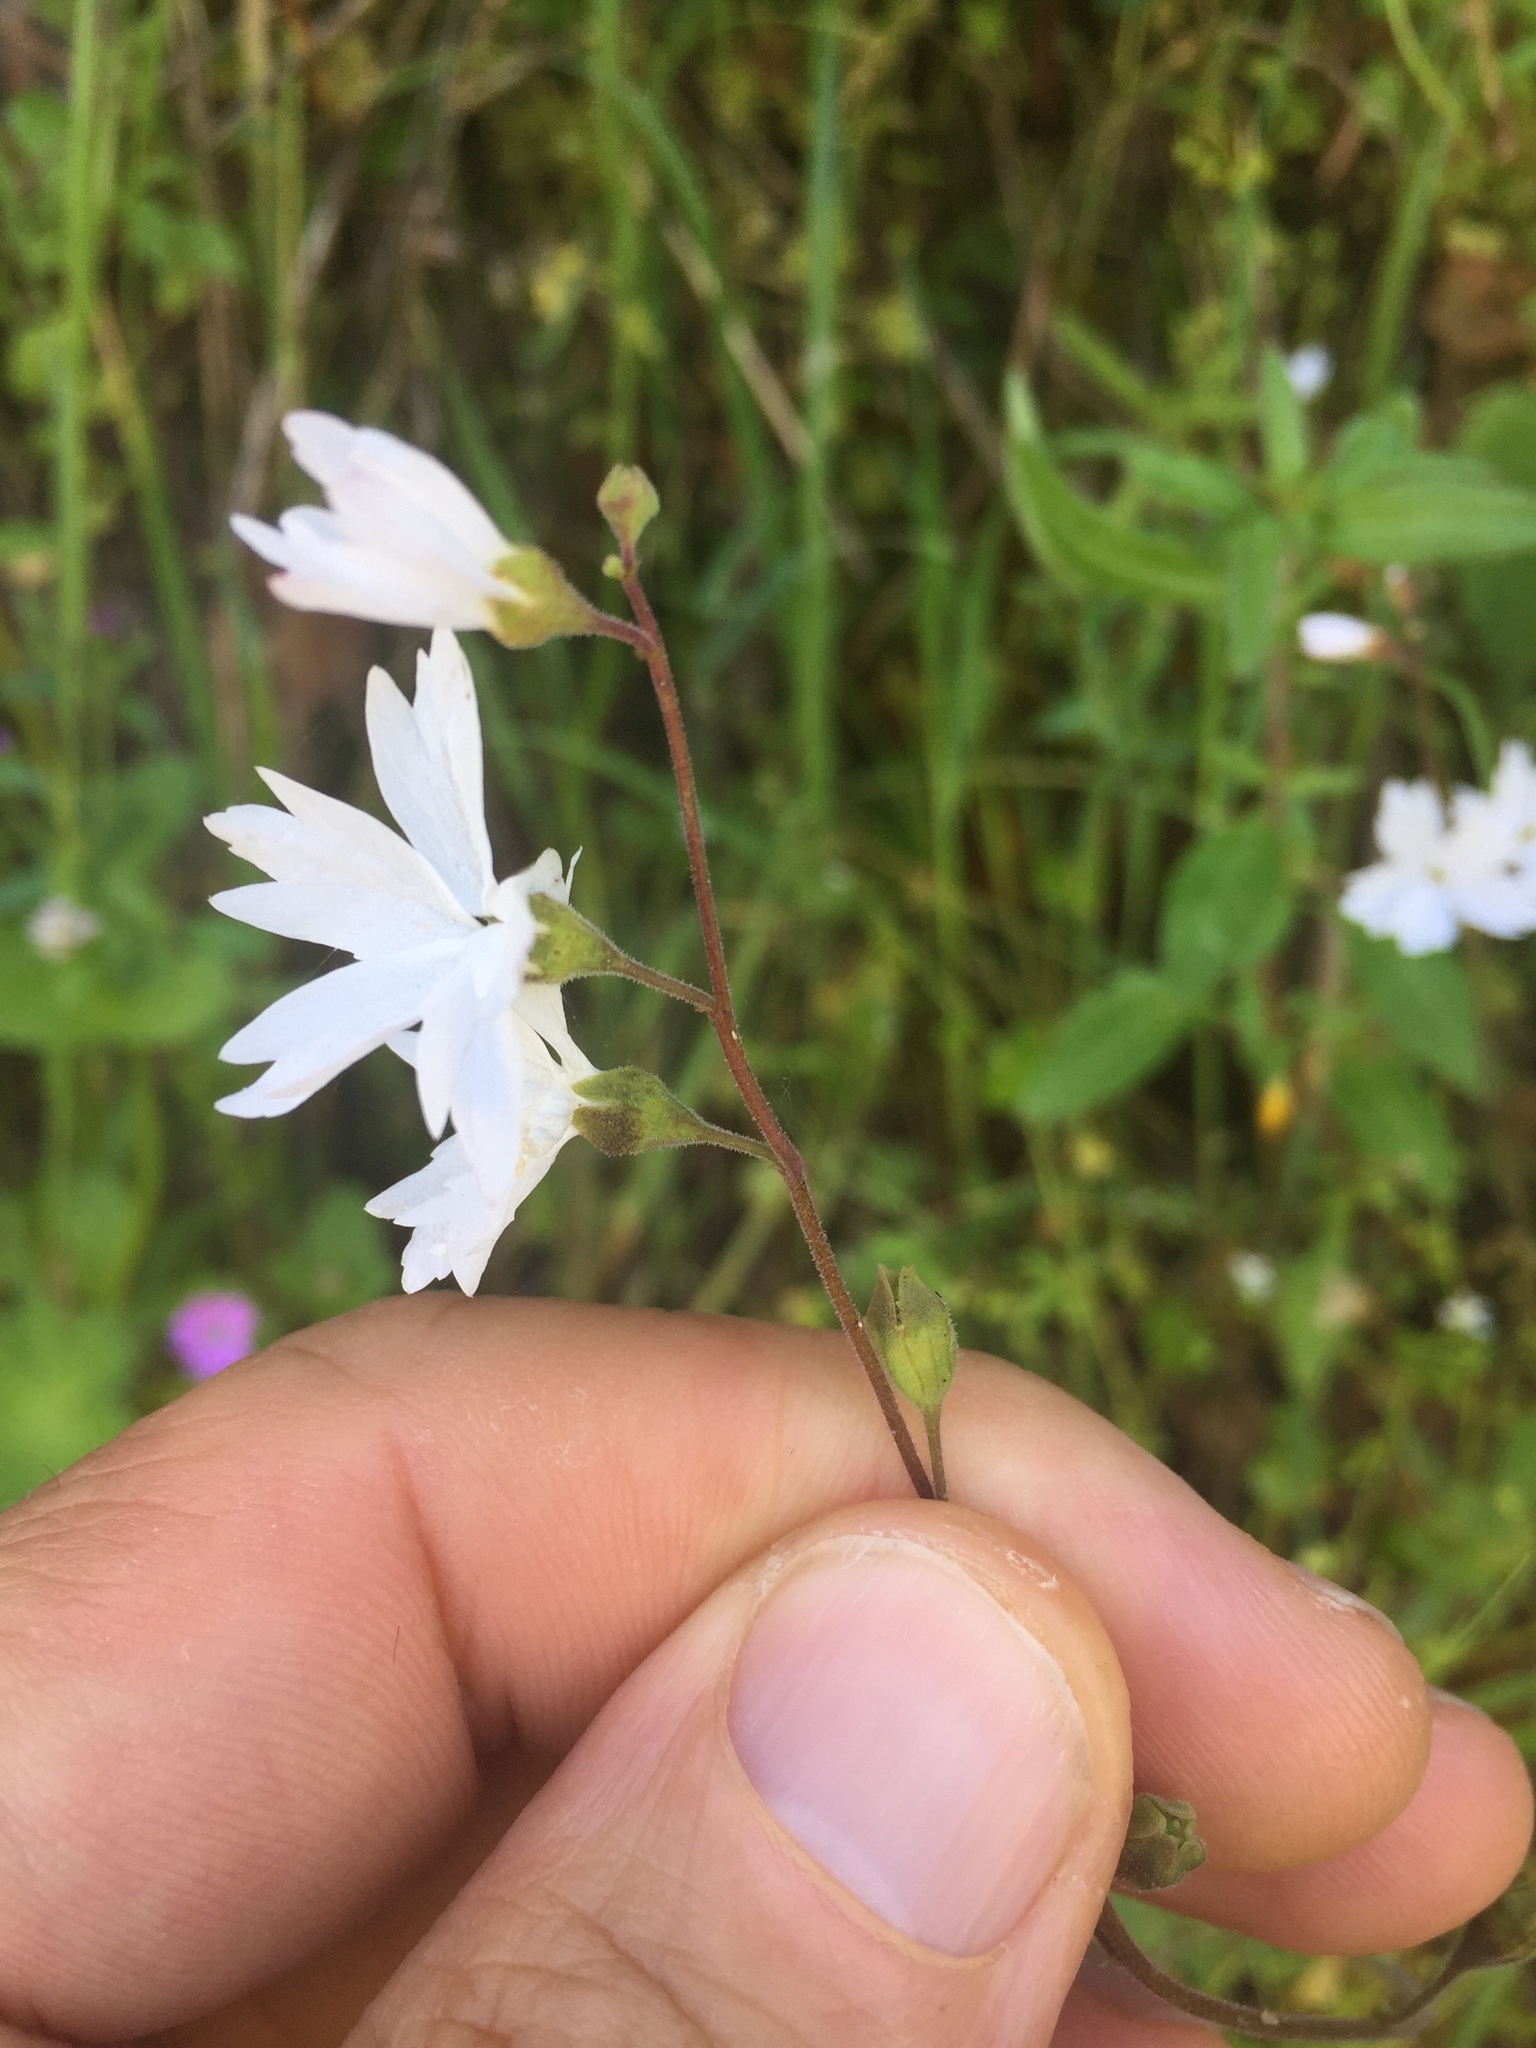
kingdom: Plantae
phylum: Tracheophyta
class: Magnoliopsida
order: Saxifragales
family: Saxifragaceae
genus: Lithophragma
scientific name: Lithophragma affine
